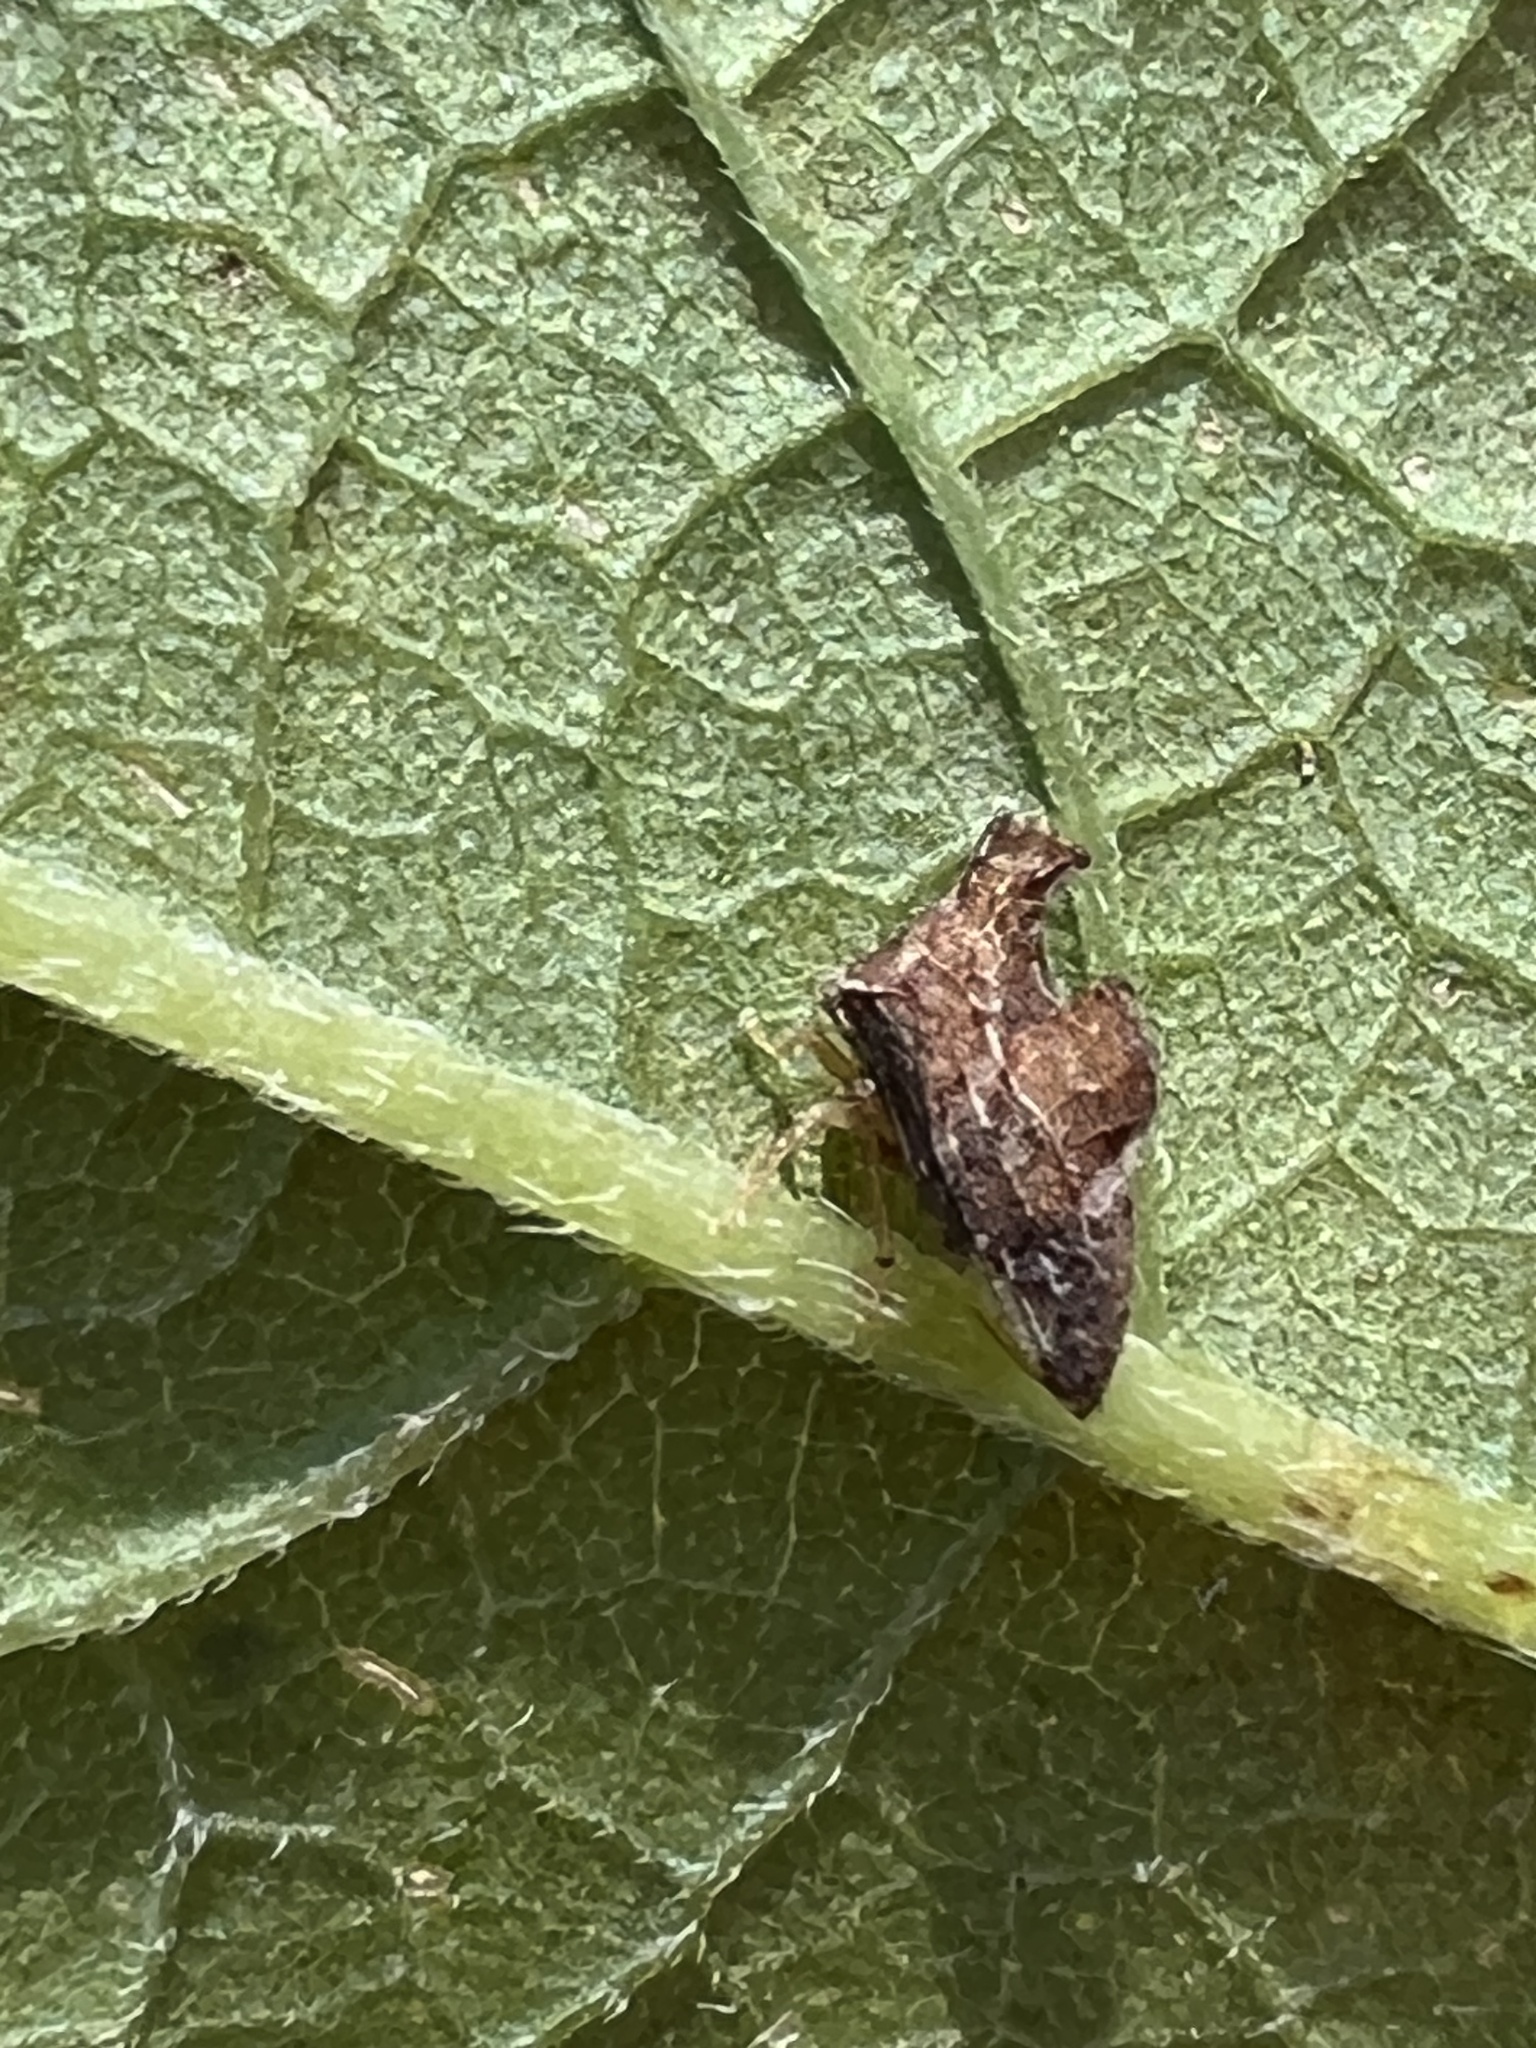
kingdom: Animalia
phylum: Arthropoda
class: Insecta
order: Hemiptera
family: Membracidae
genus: Entylia
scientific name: Entylia carinata
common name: Keeled treehopper
